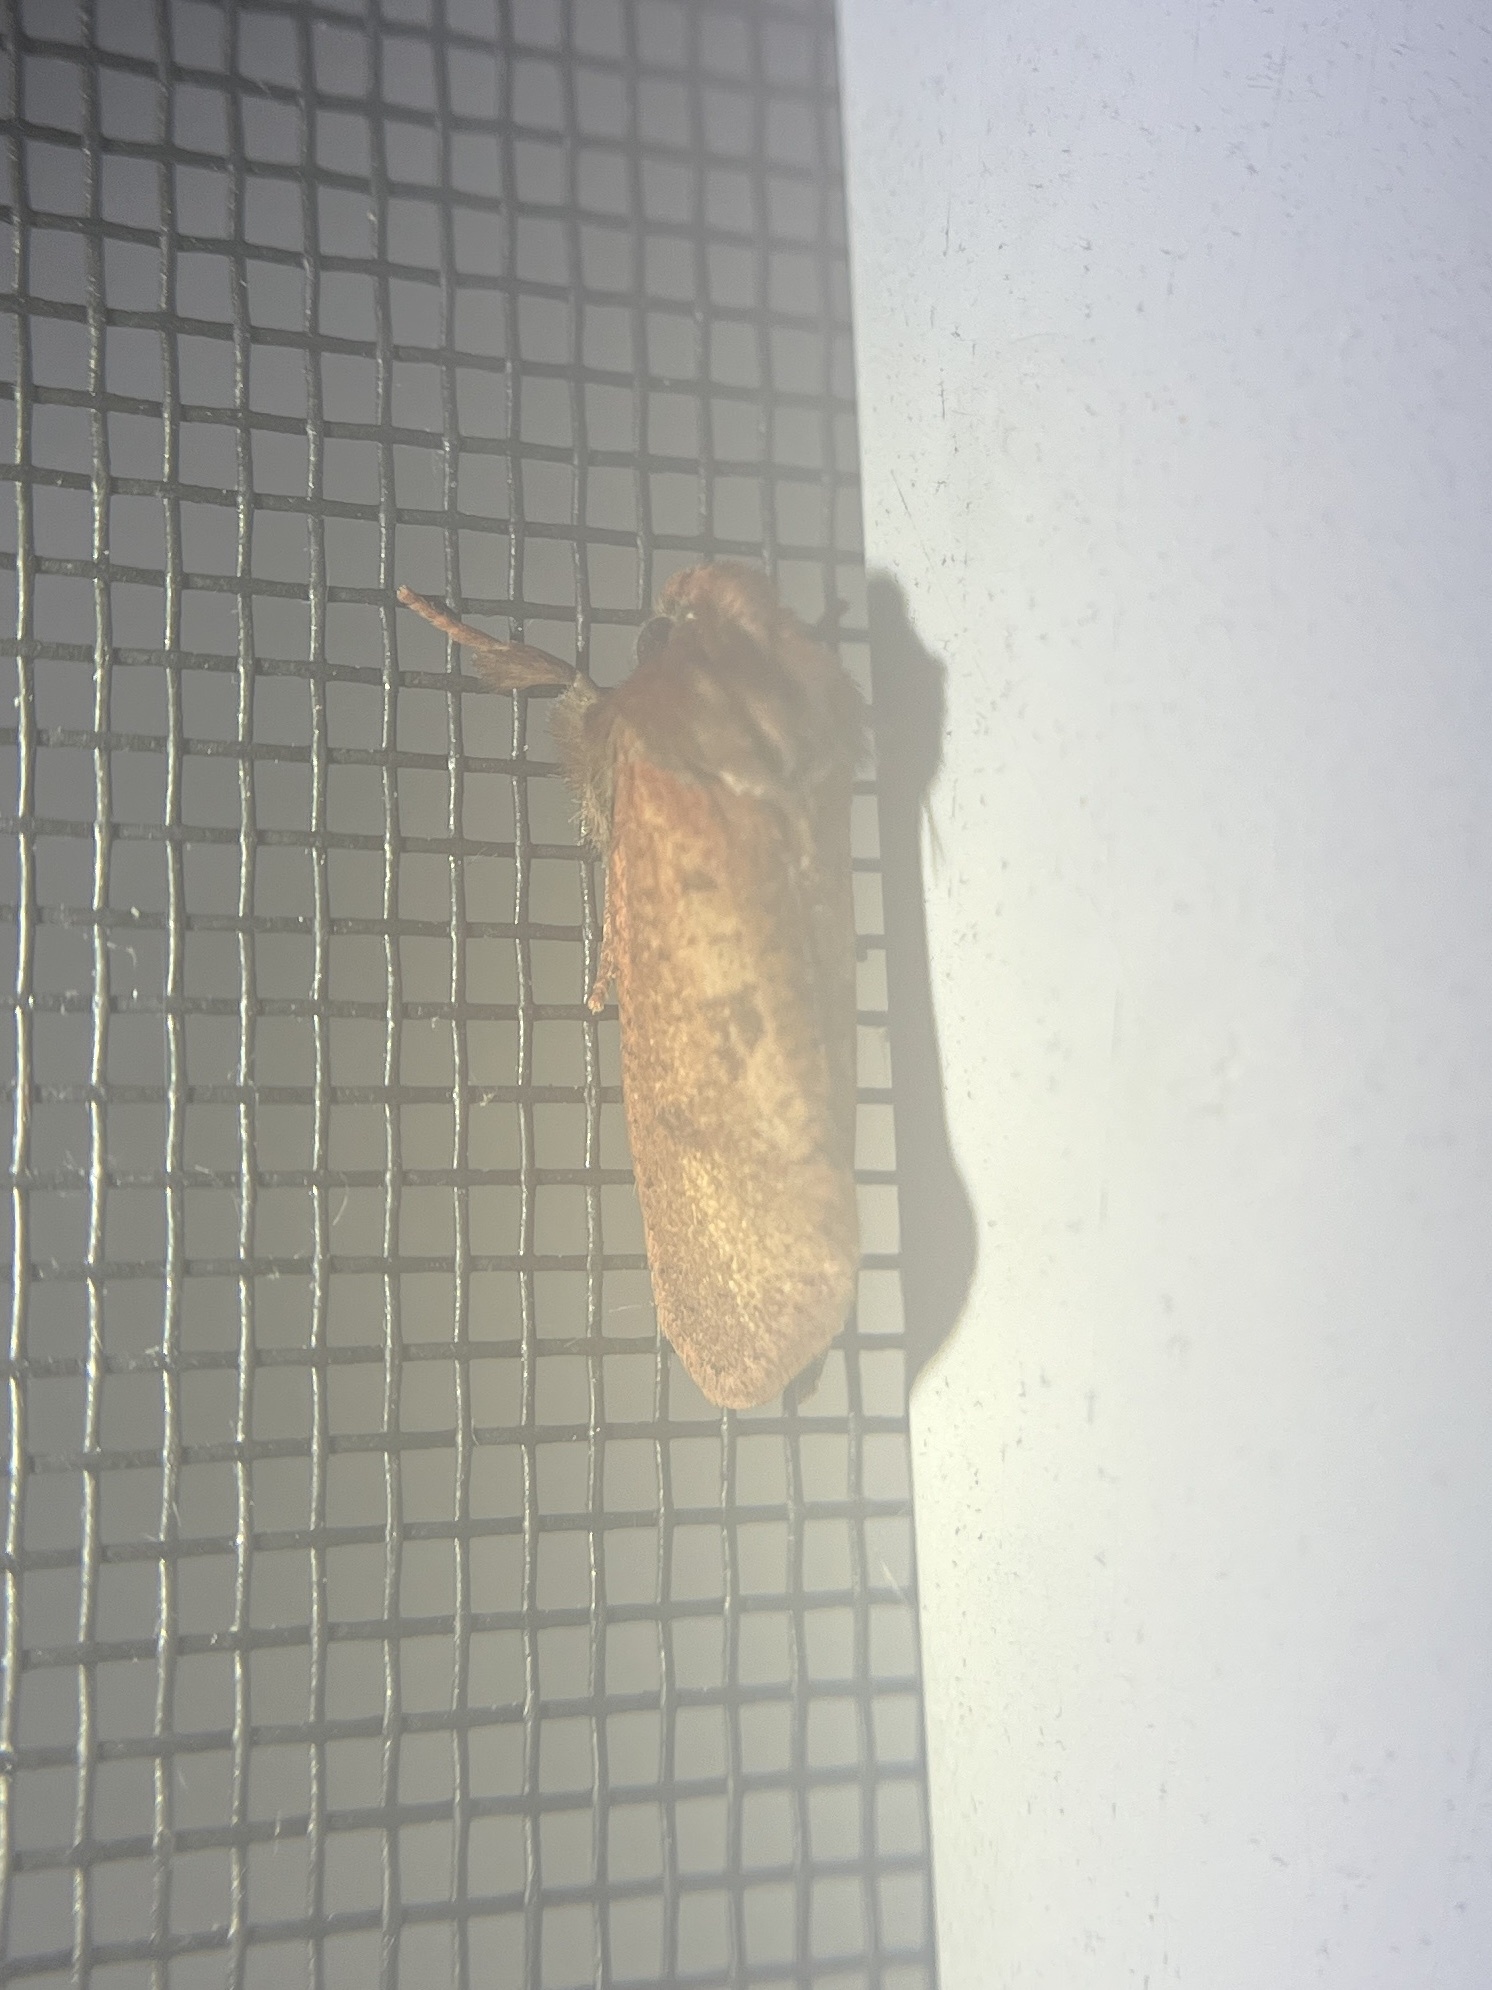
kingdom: Animalia
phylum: Arthropoda
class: Insecta
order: Lepidoptera
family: Tineidae
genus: Acrolophus
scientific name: Acrolophus plumifrontella
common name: Eastern grass tubeworm moth
